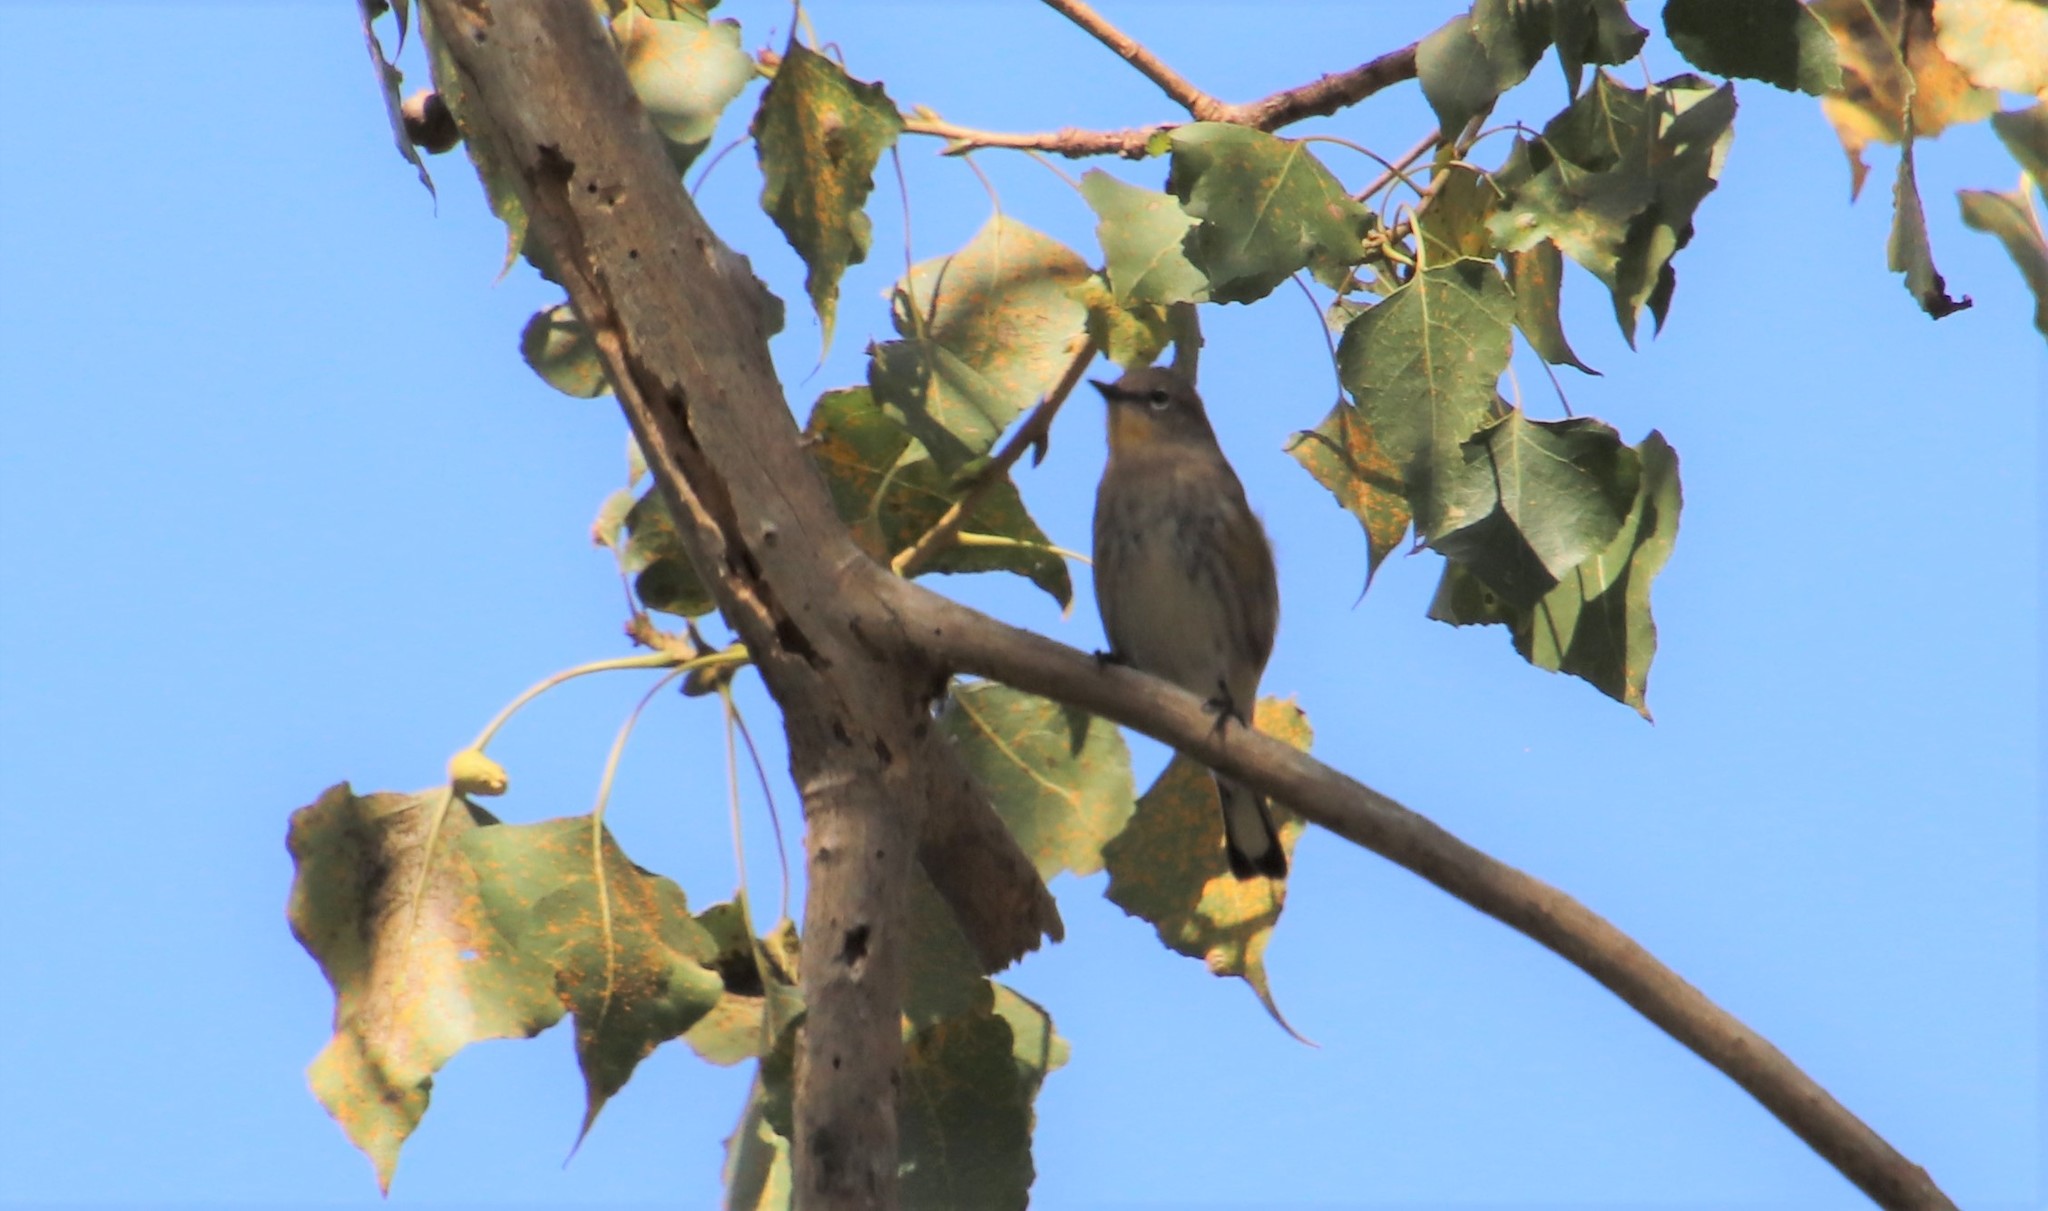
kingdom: Animalia
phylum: Chordata
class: Aves
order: Passeriformes
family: Parulidae
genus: Setophaga
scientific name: Setophaga auduboni
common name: Audubon's warbler
